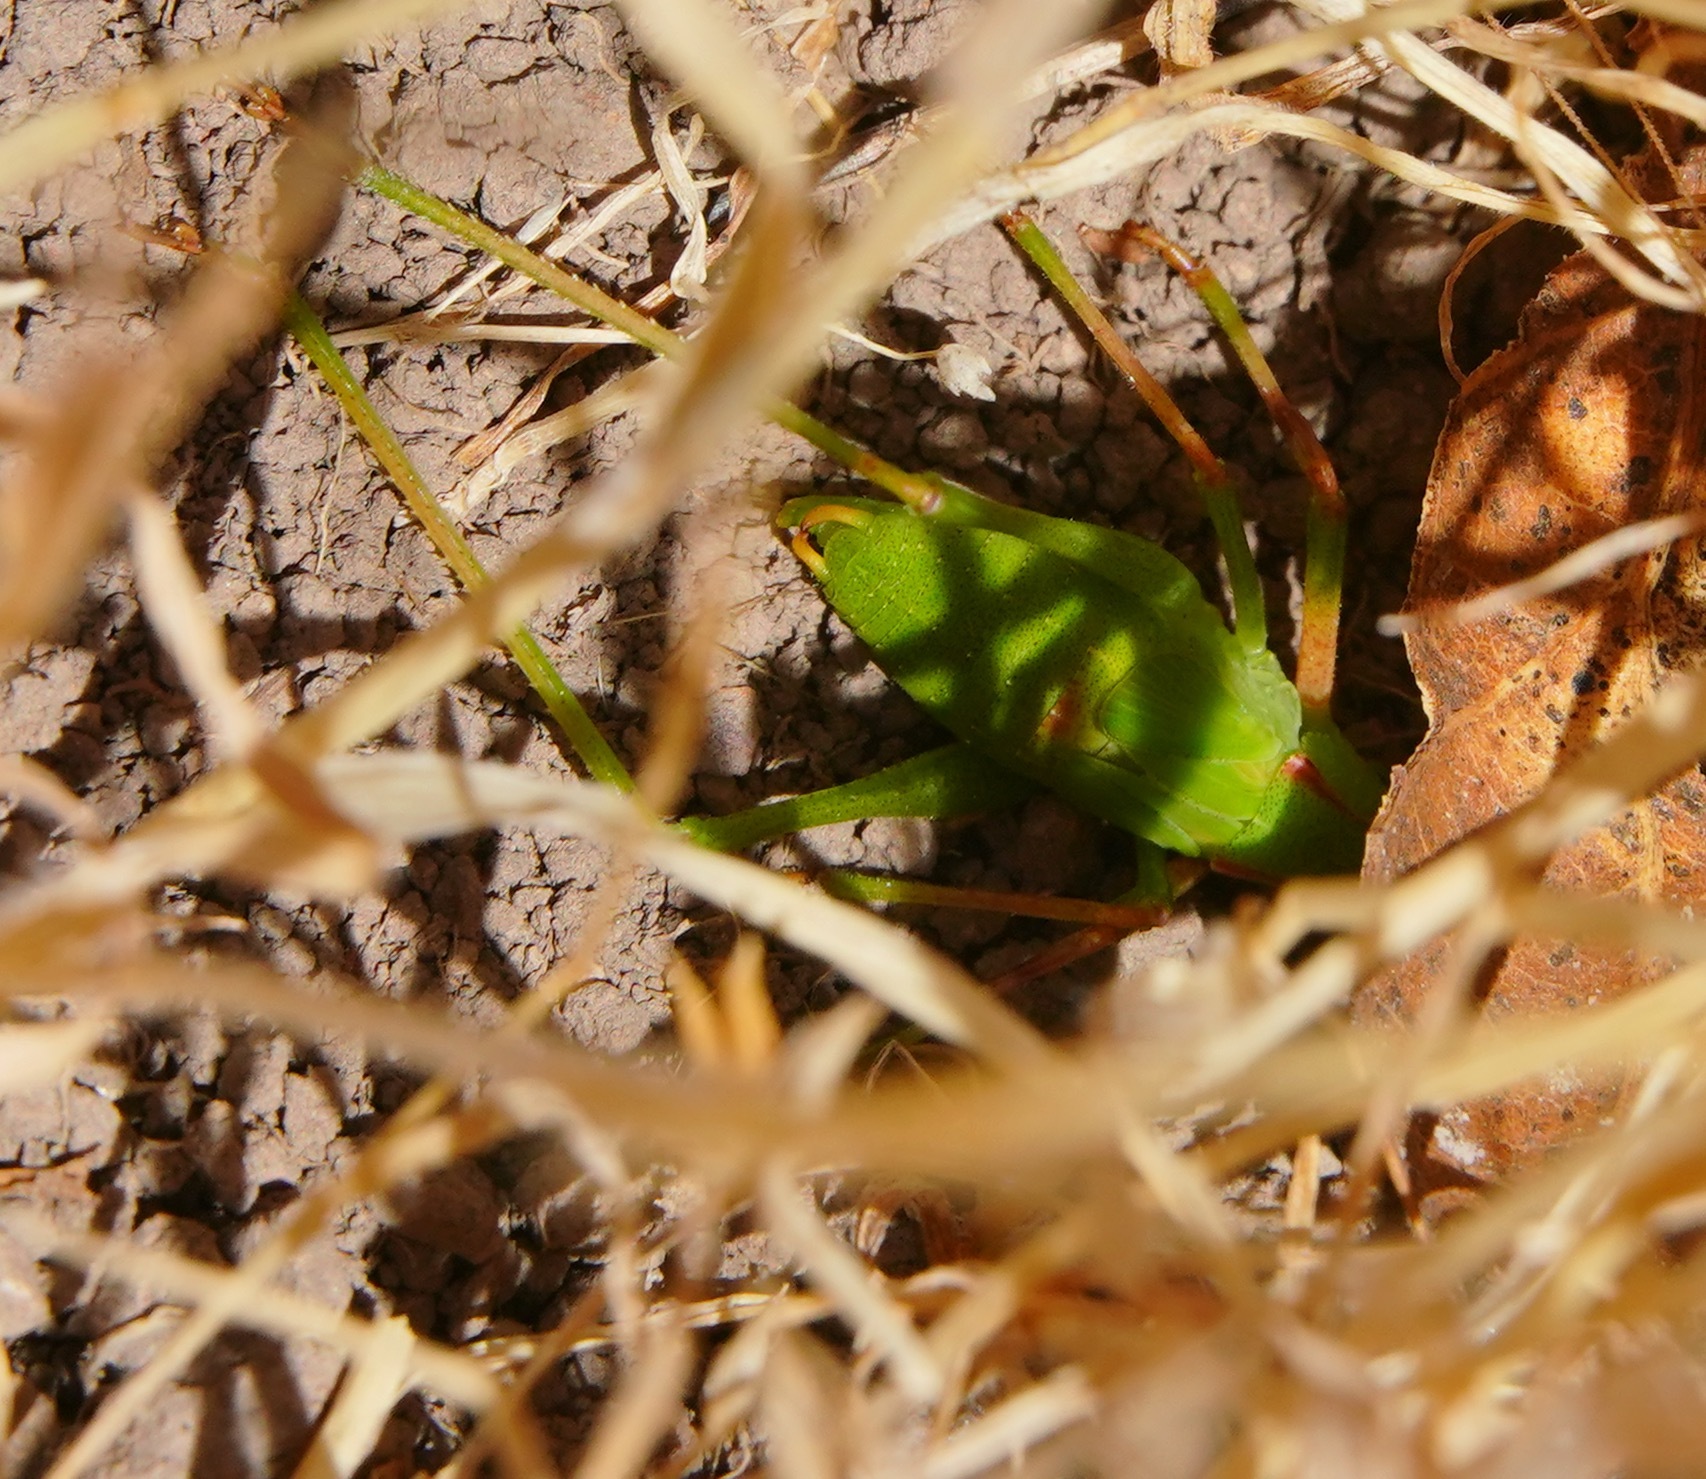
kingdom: Animalia
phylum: Arthropoda
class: Insecta
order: Orthoptera
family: Tettigoniidae
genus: Platylyra
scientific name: Platylyra californica
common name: Chaparral false katydid
